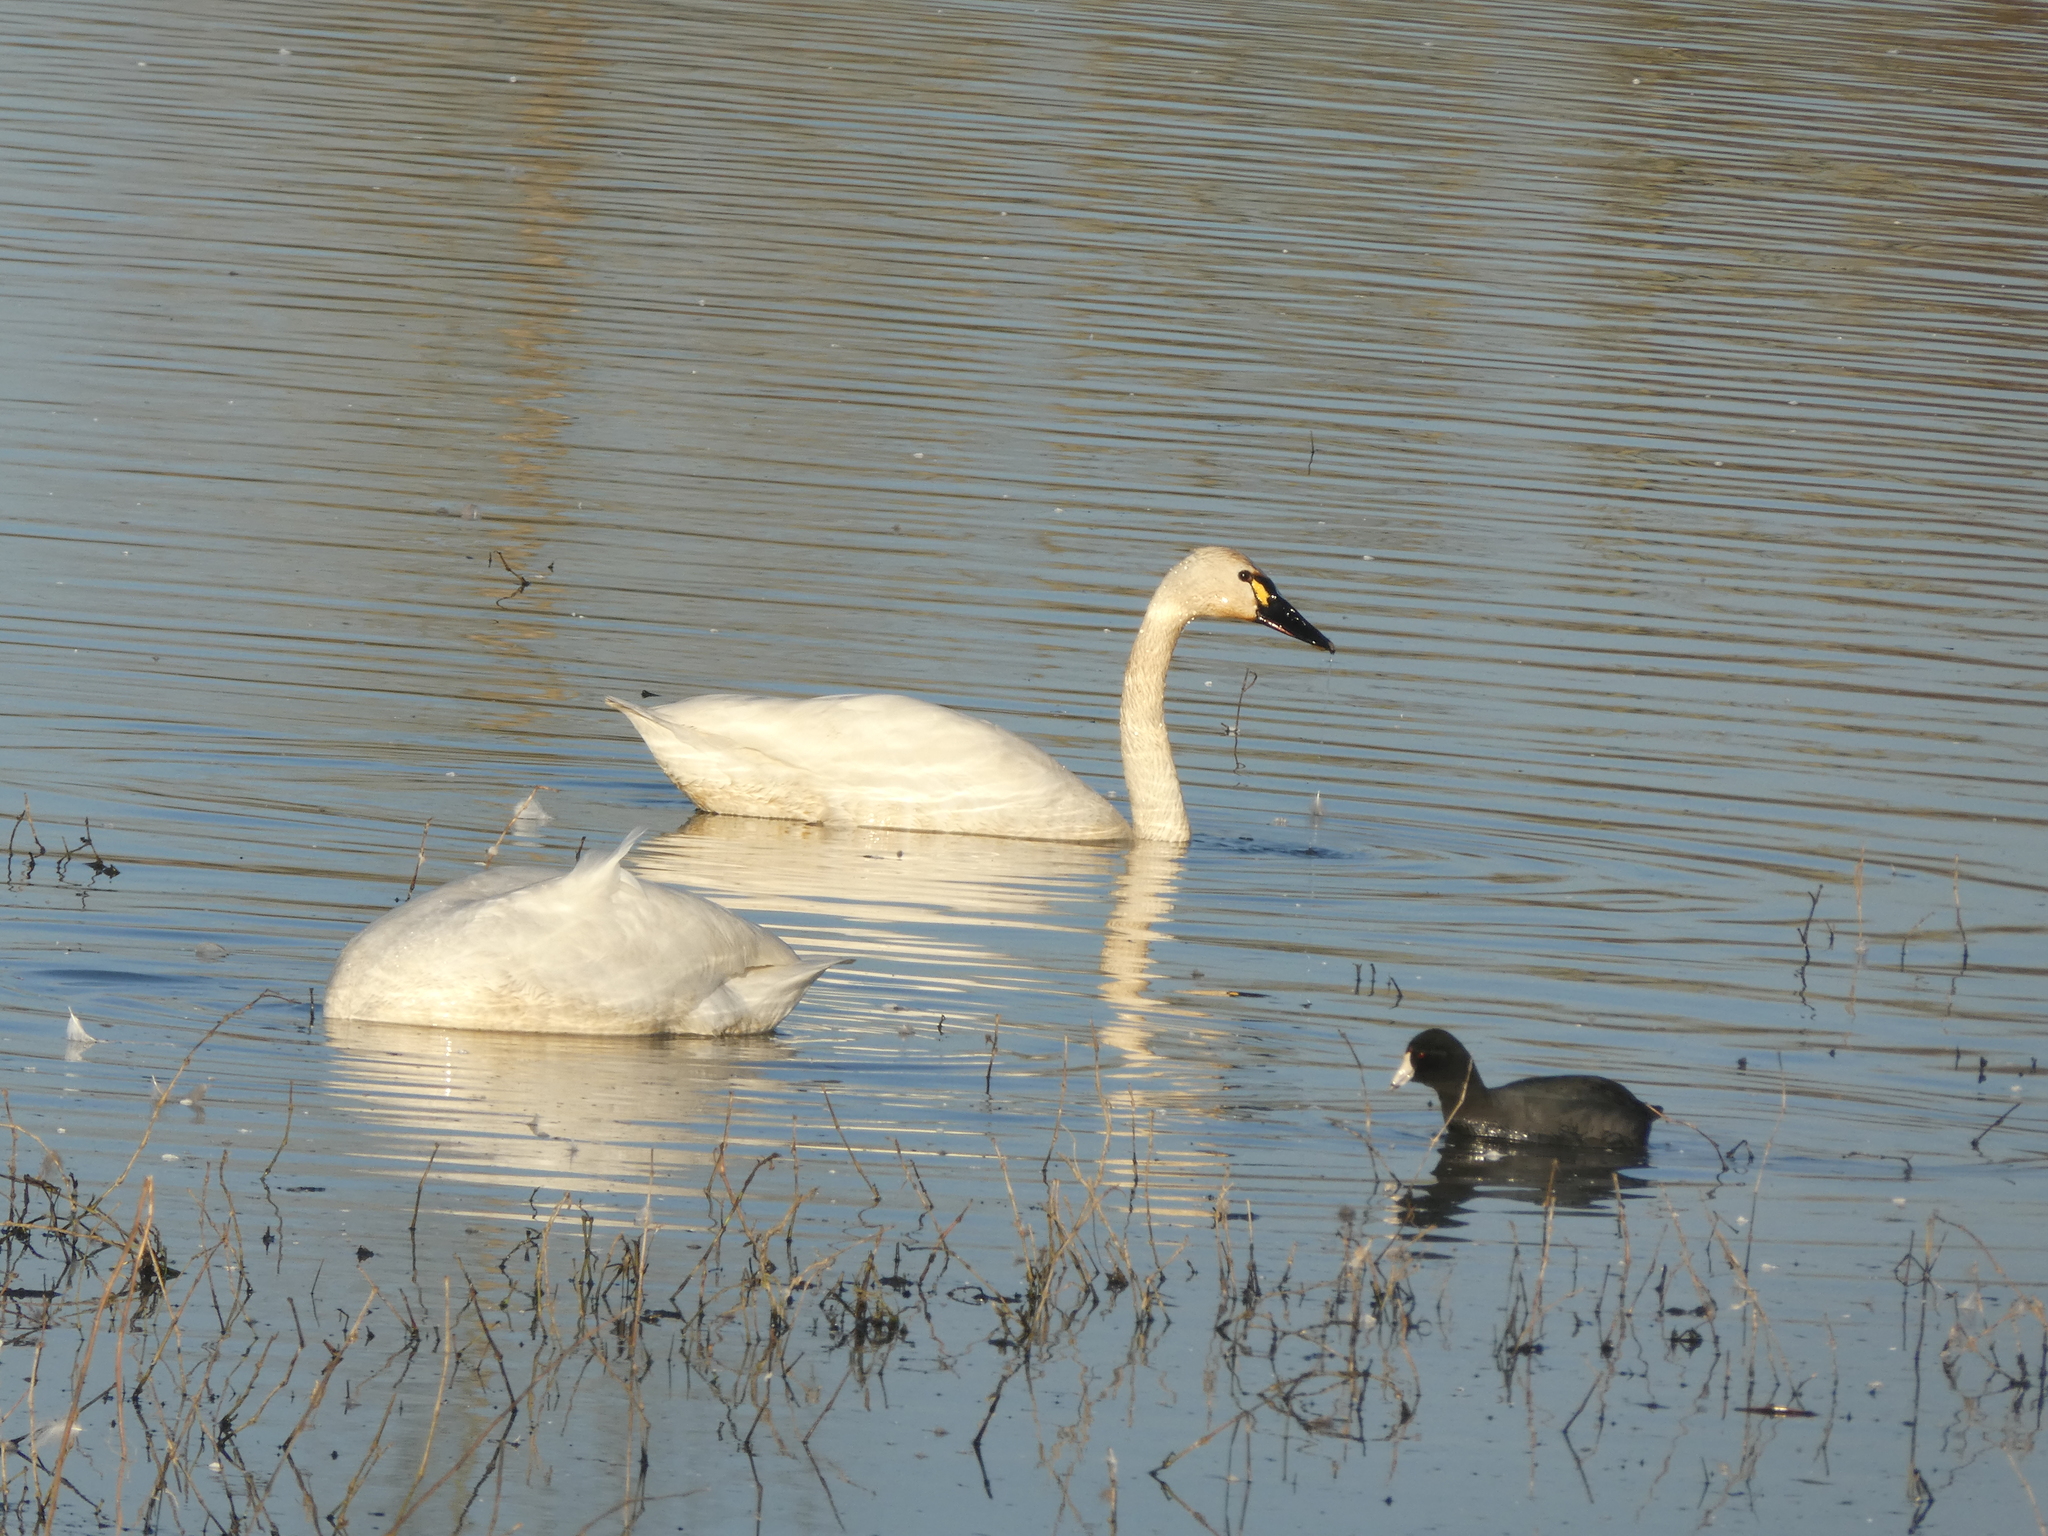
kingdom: Animalia
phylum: Chordata
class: Aves
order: Anseriformes
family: Anatidae
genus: Cygnus
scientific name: Cygnus columbianus
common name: Tundra swan
